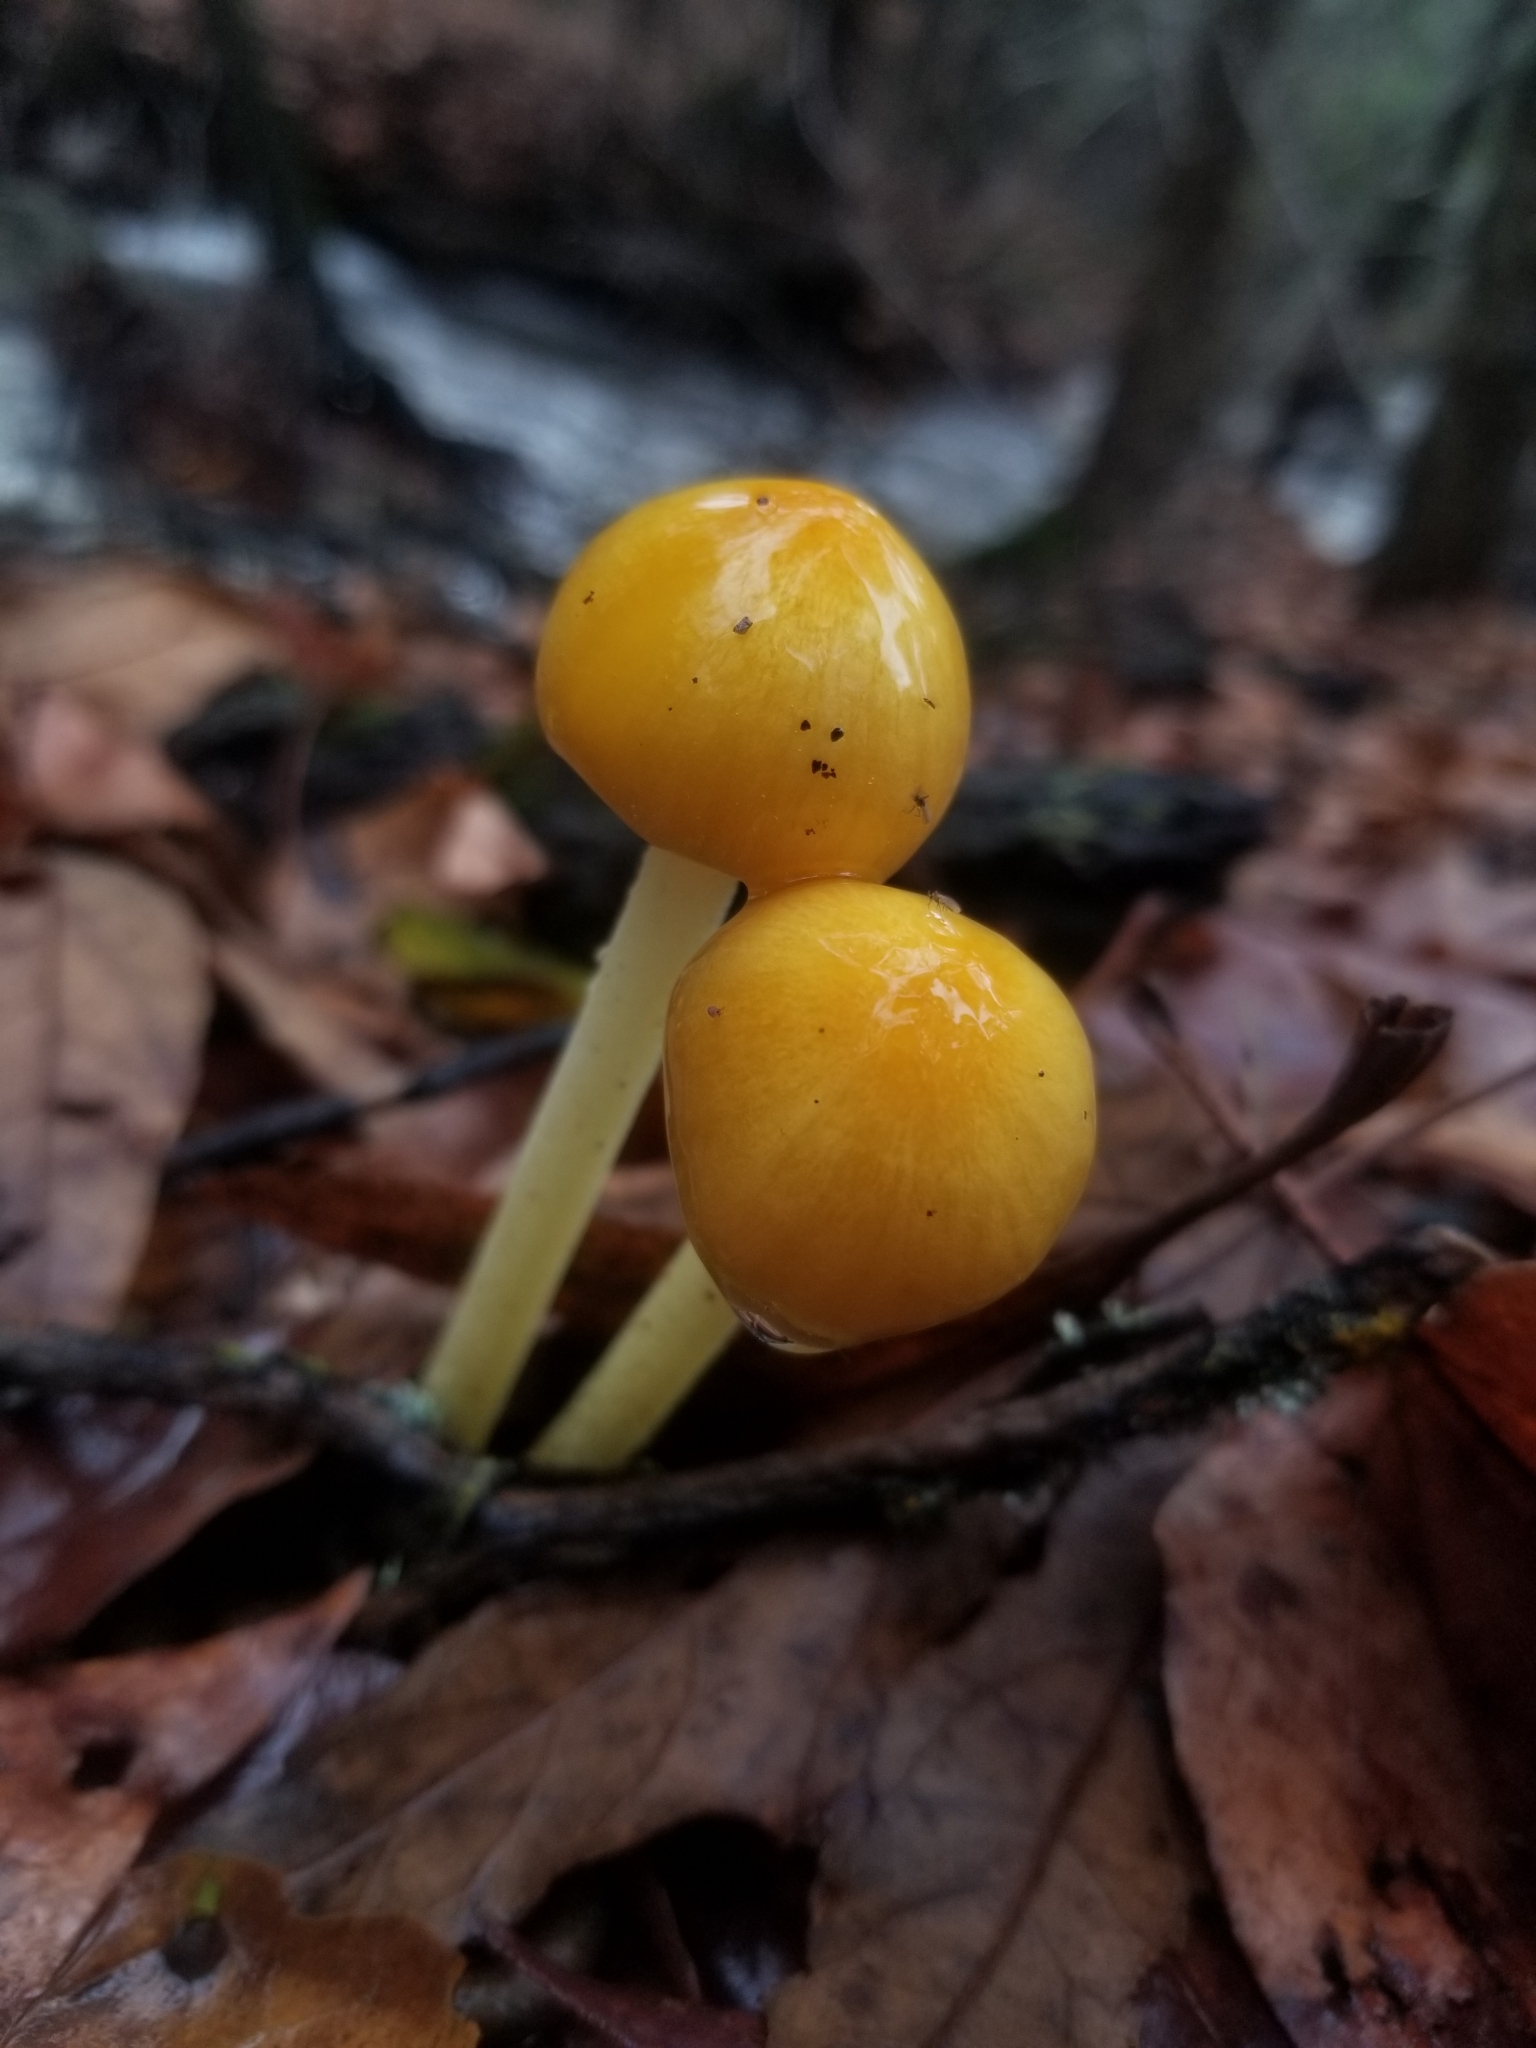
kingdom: Fungi
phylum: Basidiomycota
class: Agaricomycetes
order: Agaricales
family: Bolbitiaceae
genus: Bolbitius
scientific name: Bolbitius titubans
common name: Yellow fieldcap
